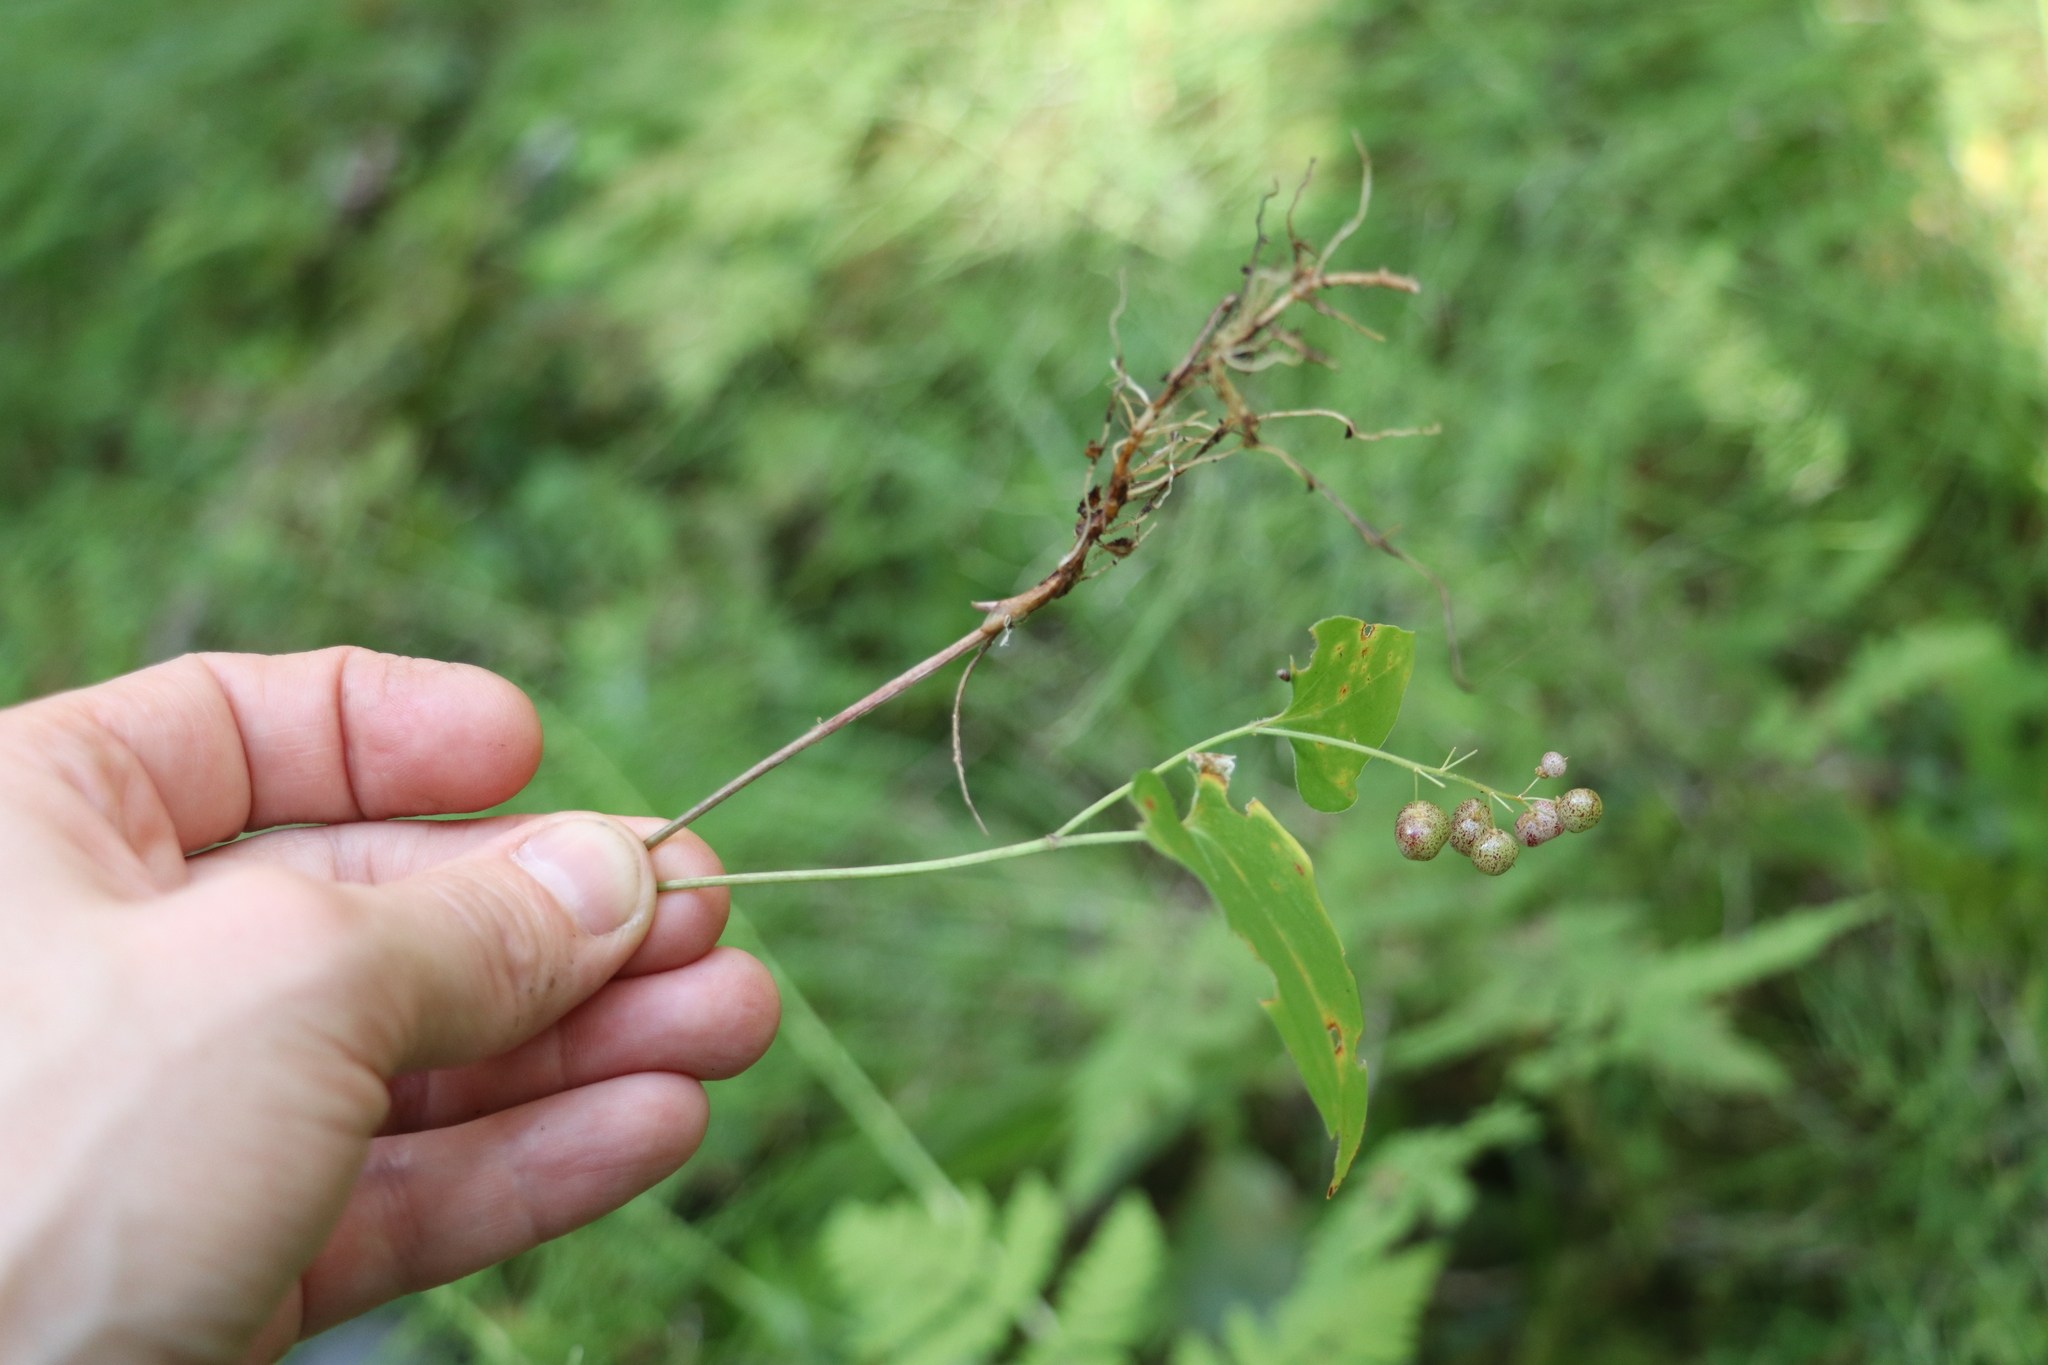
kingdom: Plantae
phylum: Tracheophyta
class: Liliopsida
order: Asparagales
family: Asparagaceae
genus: Maianthemum
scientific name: Maianthemum bifolium
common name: May lily
